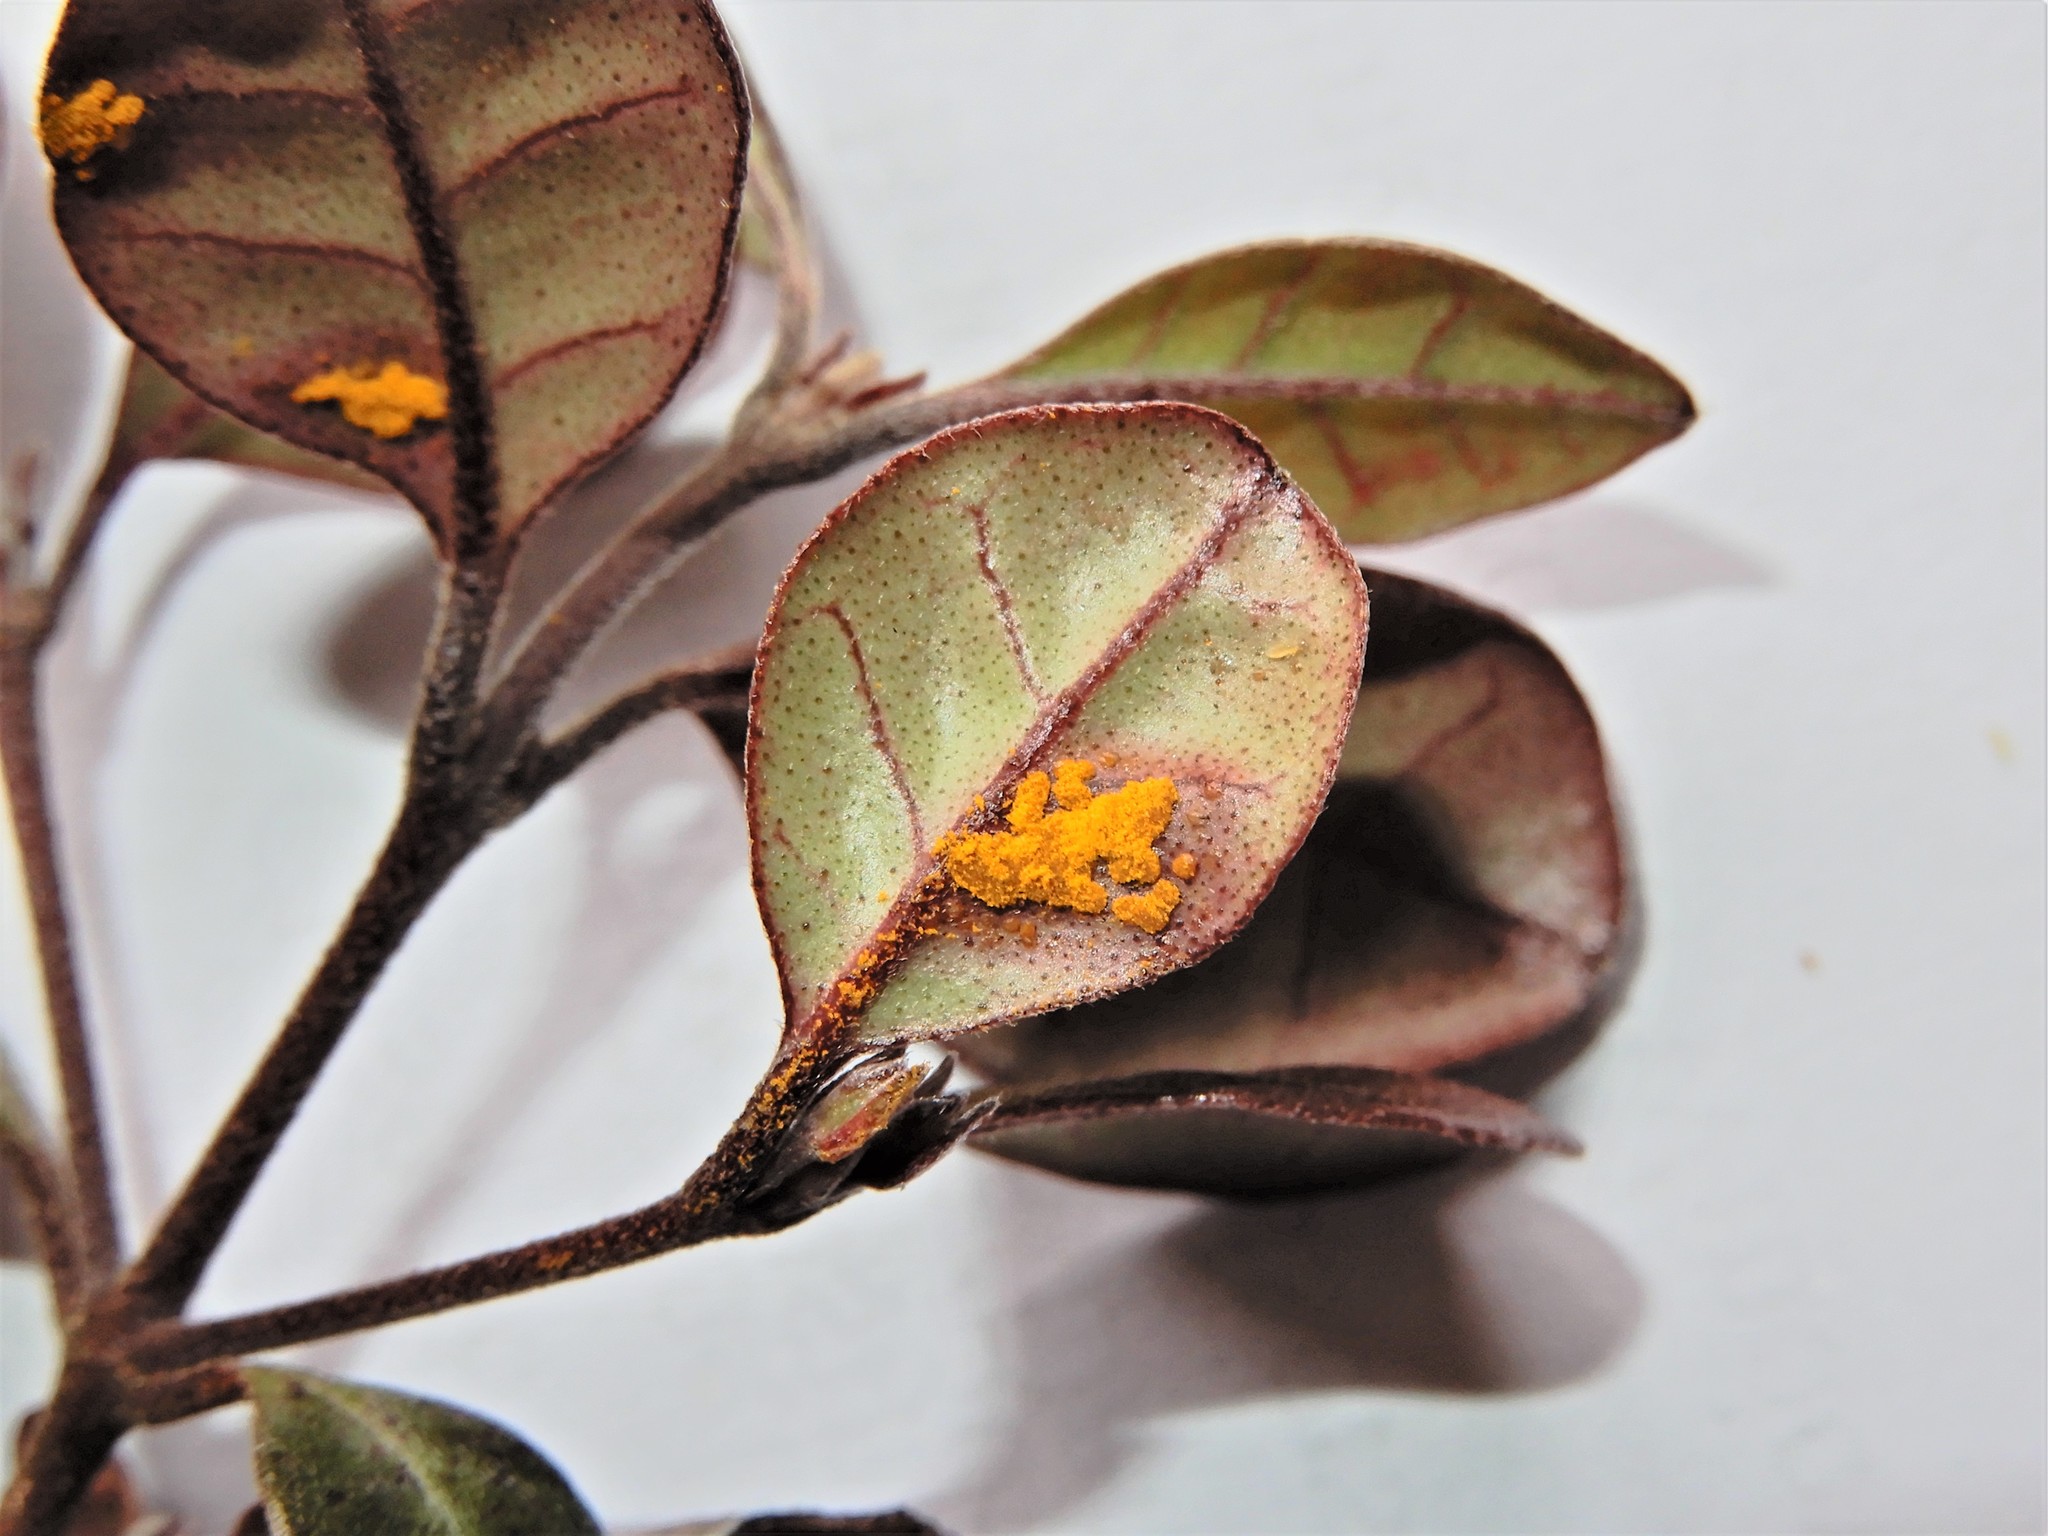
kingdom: Fungi
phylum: Basidiomycota
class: Pucciniomycetes
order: Pucciniales
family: Sphaerophragmiaceae
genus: Austropuccinia
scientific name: Austropuccinia psidii
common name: Myrtle rust
